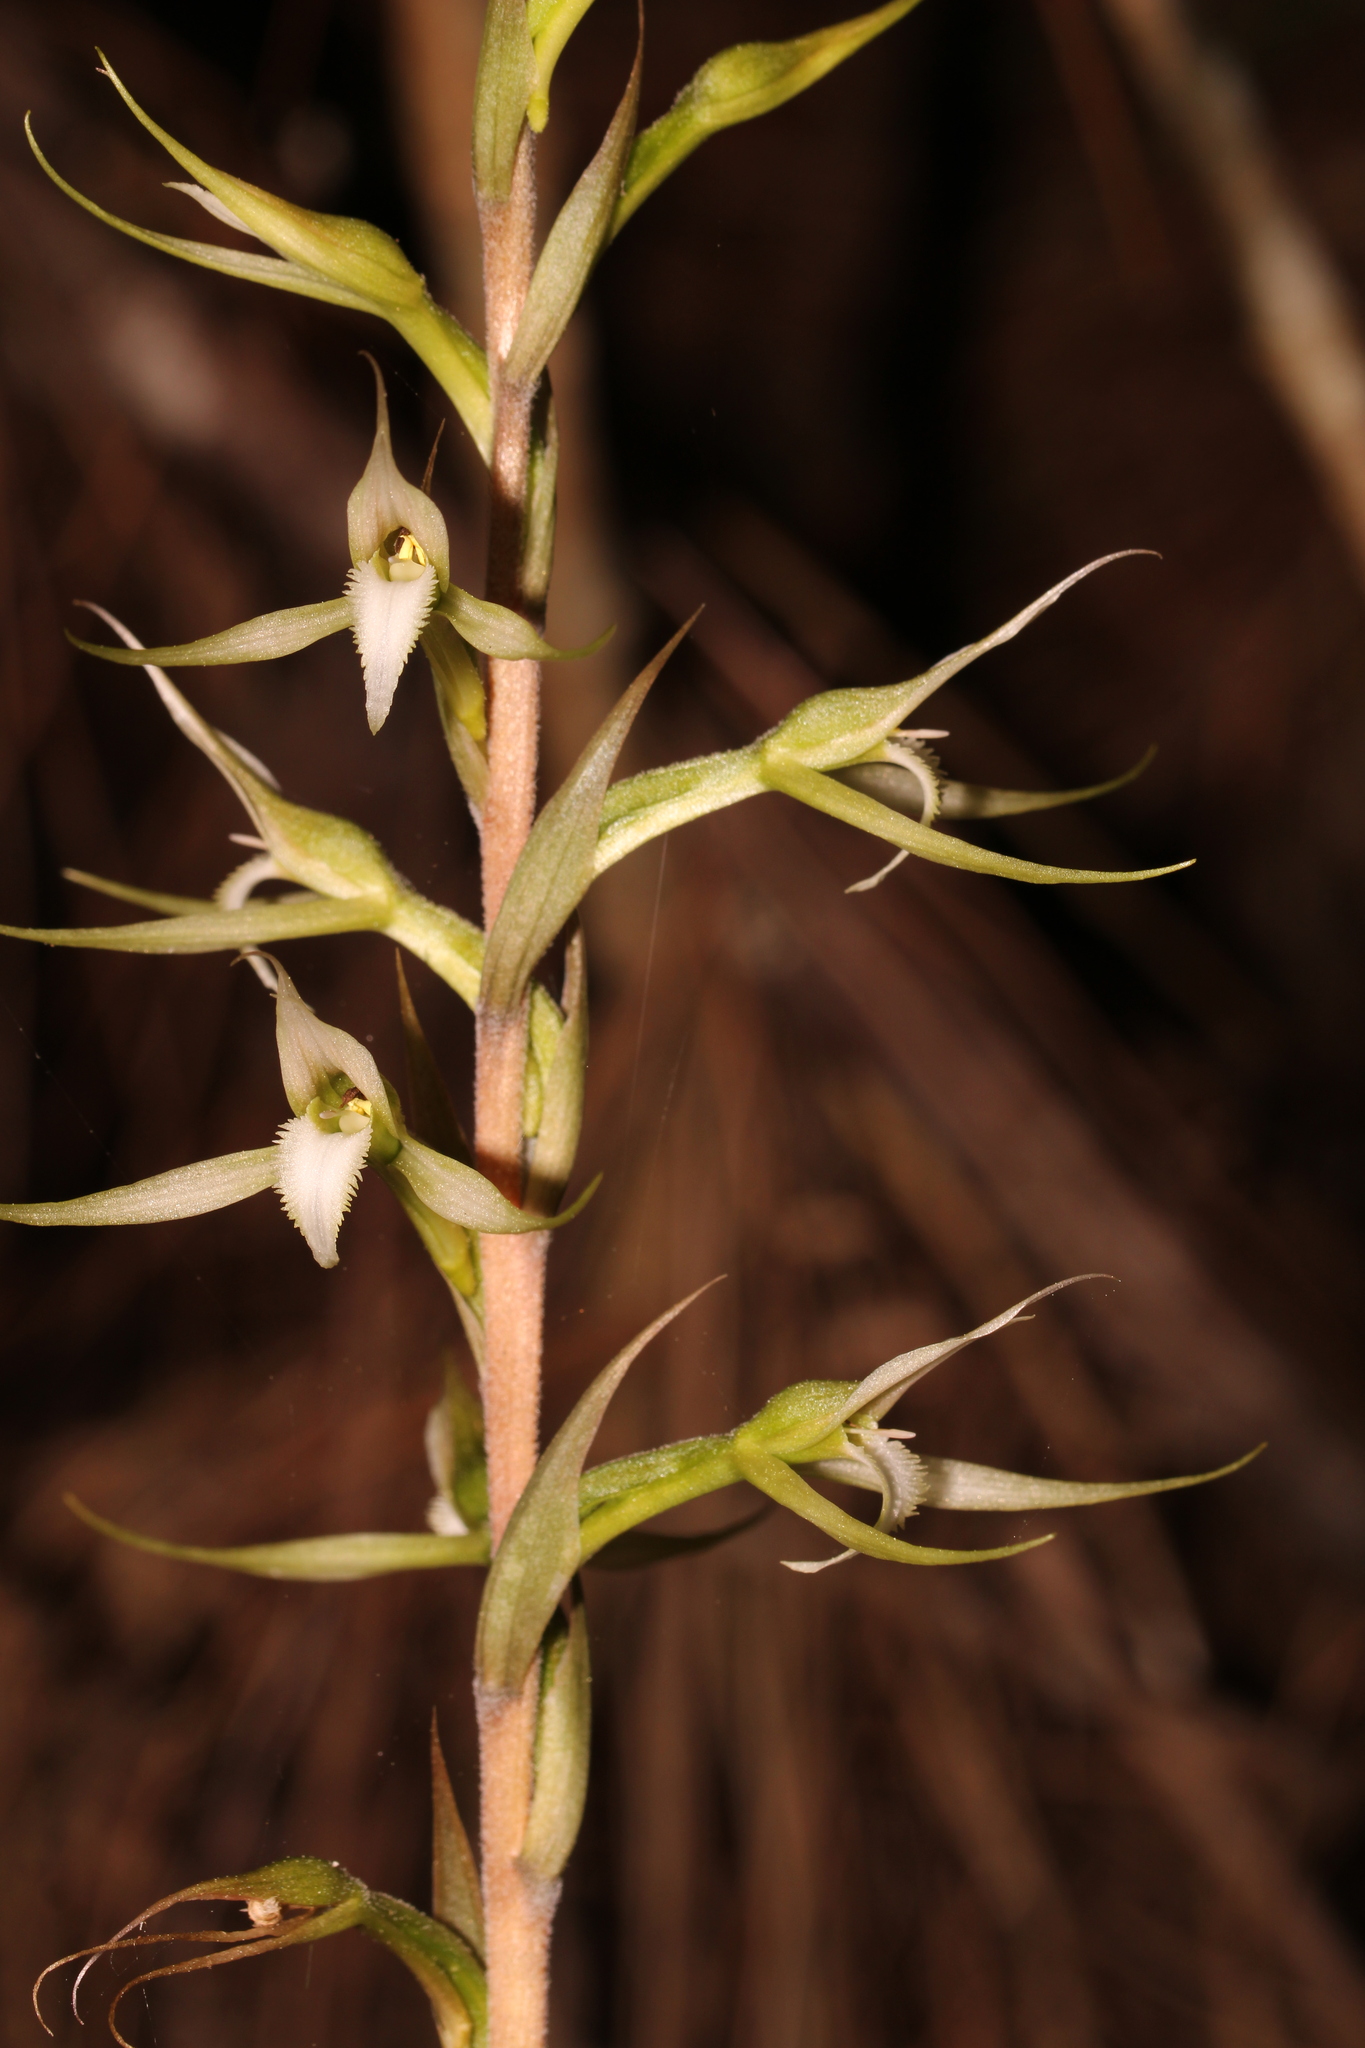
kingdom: Plantae
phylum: Tracheophyta
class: Liliopsida
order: Asparagales
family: Orchidaceae
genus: Eltroplectris
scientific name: Eltroplectris calcarata
